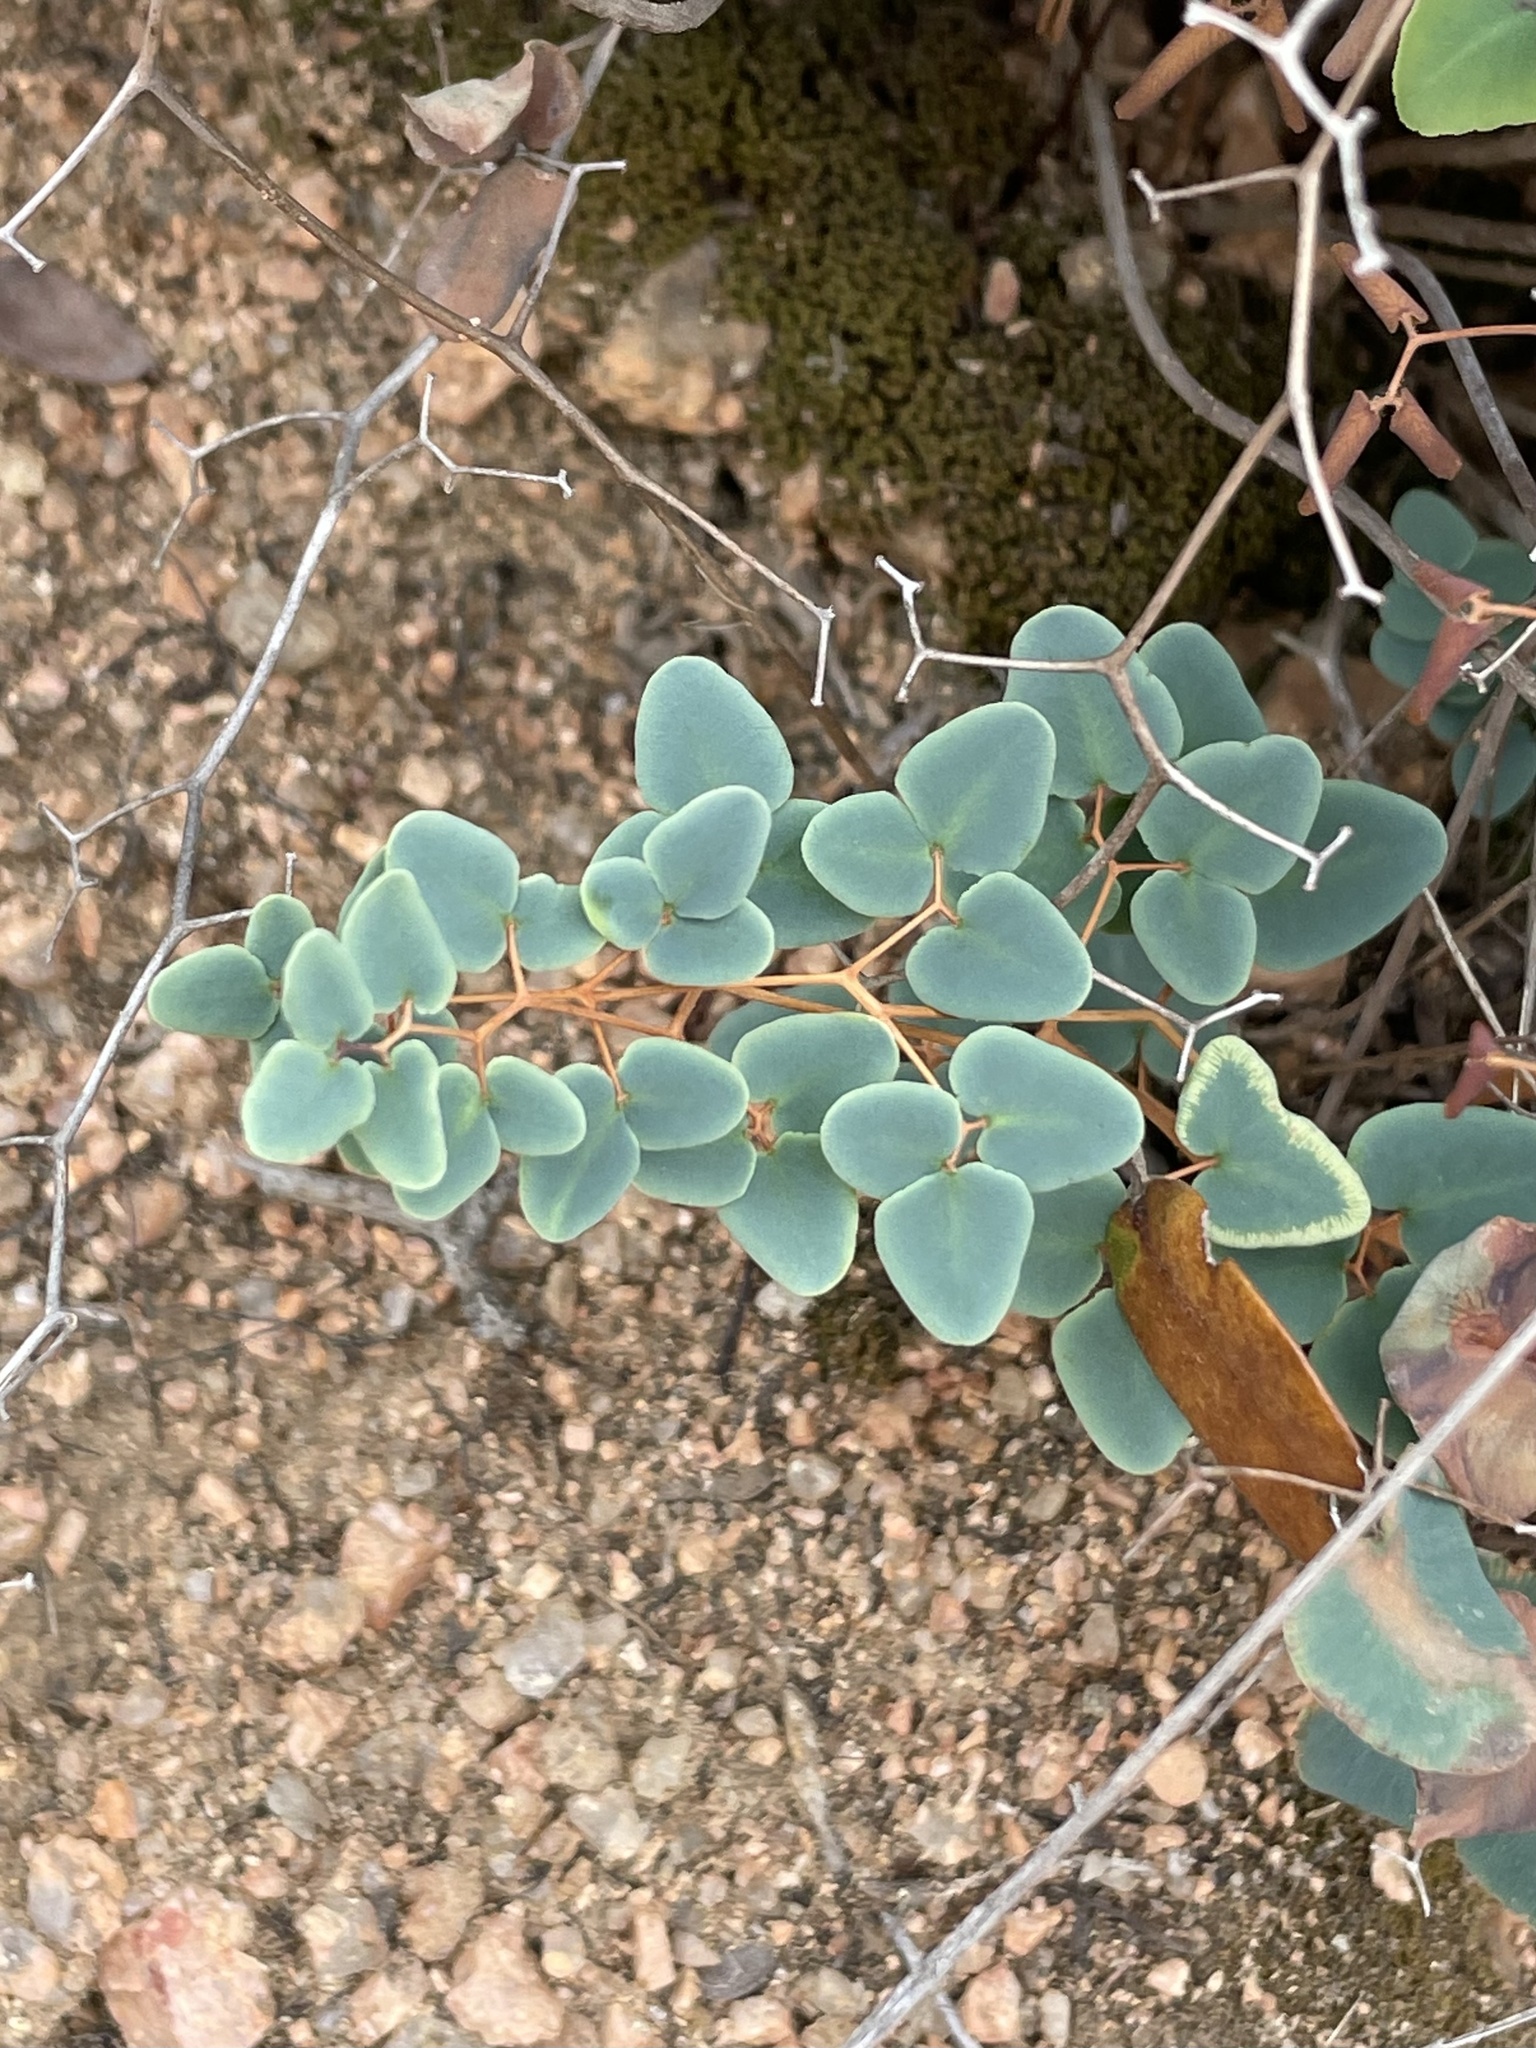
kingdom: Plantae
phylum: Tracheophyta
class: Polypodiopsida
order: Polypodiales
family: Pteridaceae
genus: Pellaea
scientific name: Pellaea ovata
